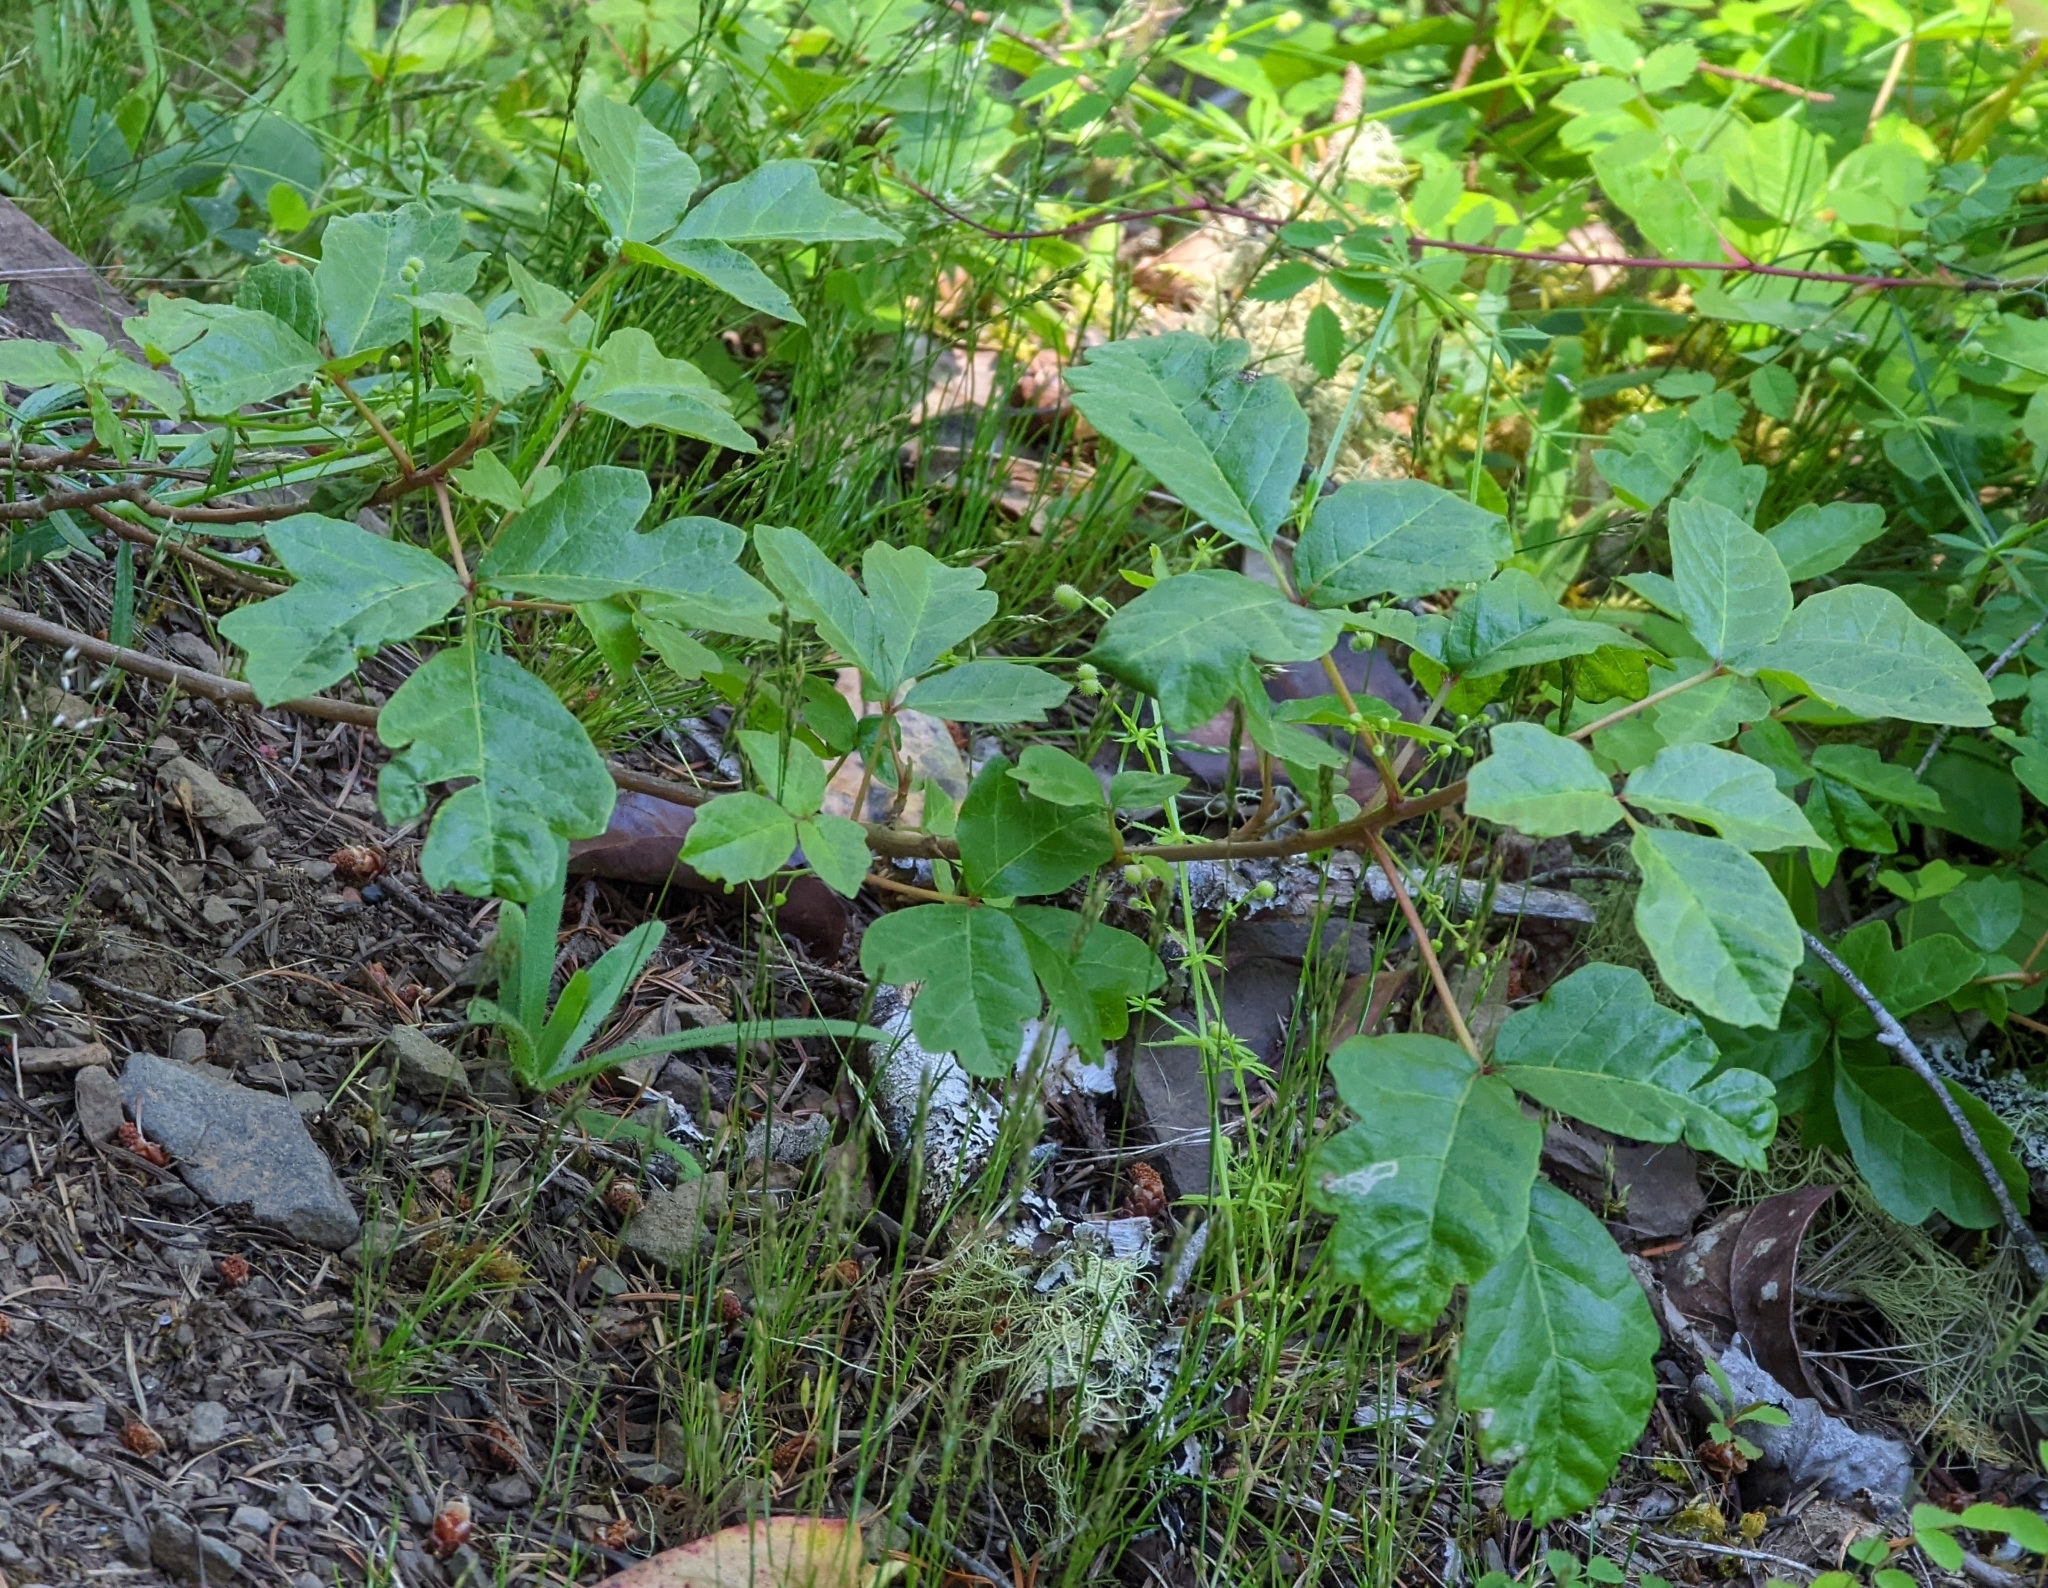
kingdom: Plantae
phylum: Tracheophyta
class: Magnoliopsida
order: Sapindales
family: Anacardiaceae
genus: Toxicodendron
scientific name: Toxicodendron diversilobum
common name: Pacific poison-oak
